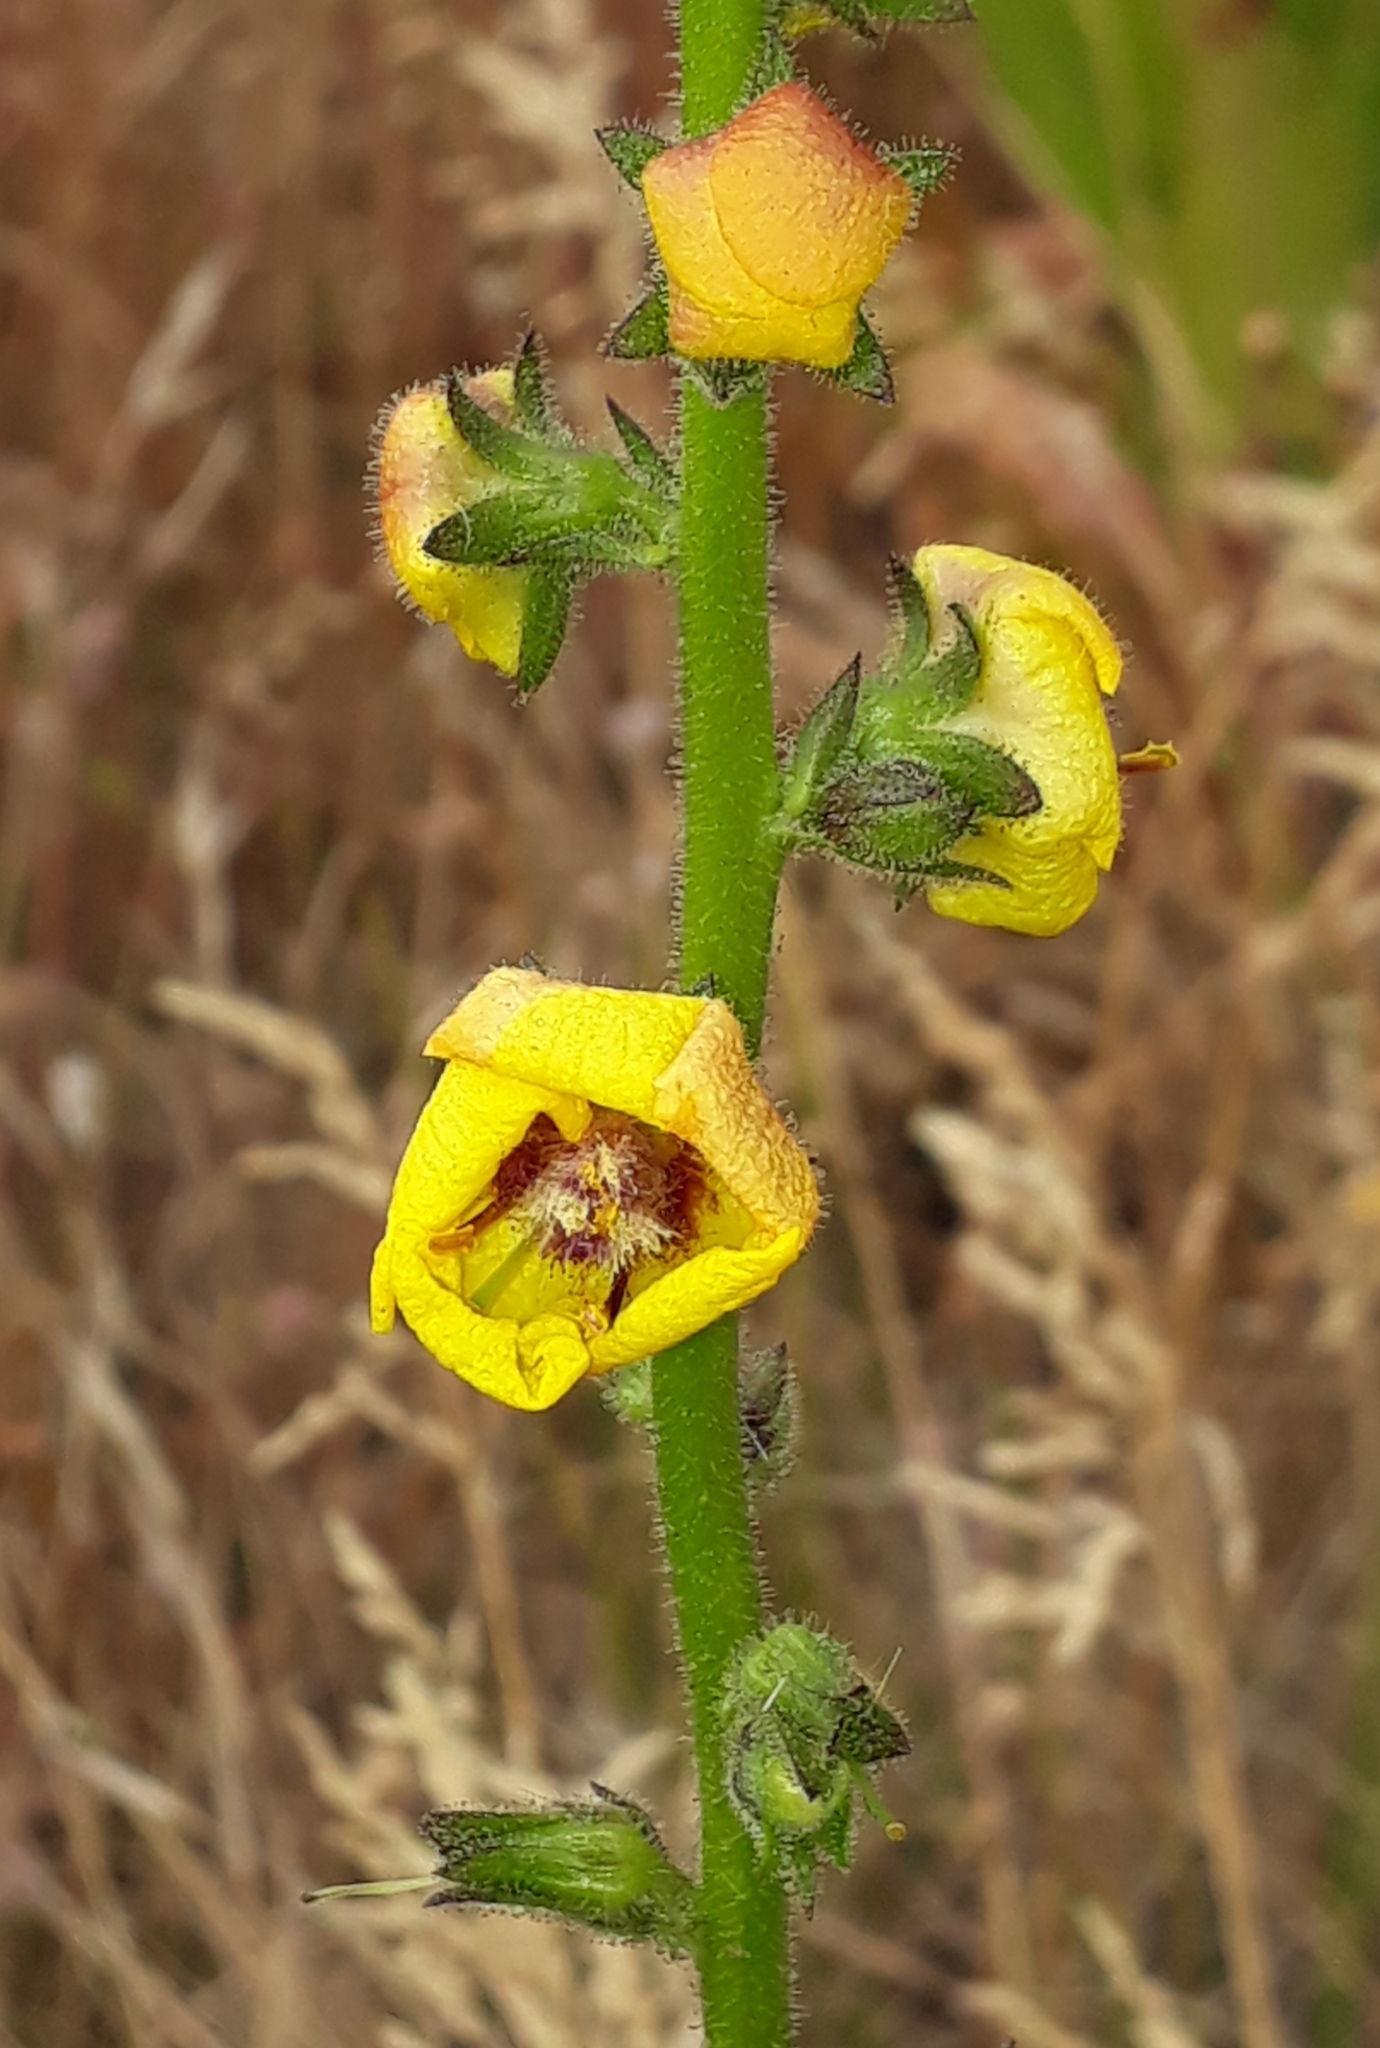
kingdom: Plantae
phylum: Tracheophyta
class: Magnoliopsida
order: Lamiales
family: Scrophulariaceae
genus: Verbascum
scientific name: Verbascum virgatum
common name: Twiggy mullein
